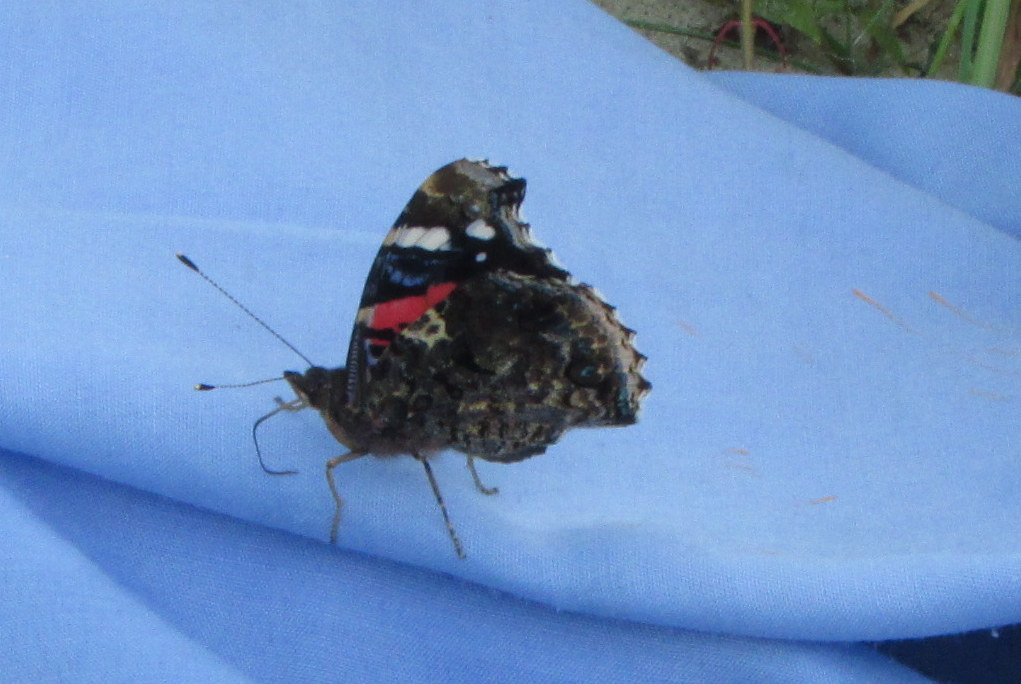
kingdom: Animalia
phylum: Arthropoda
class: Insecta
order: Lepidoptera
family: Nymphalidae
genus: Vanessa
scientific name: Vanessa atalanta
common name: Red admiral
